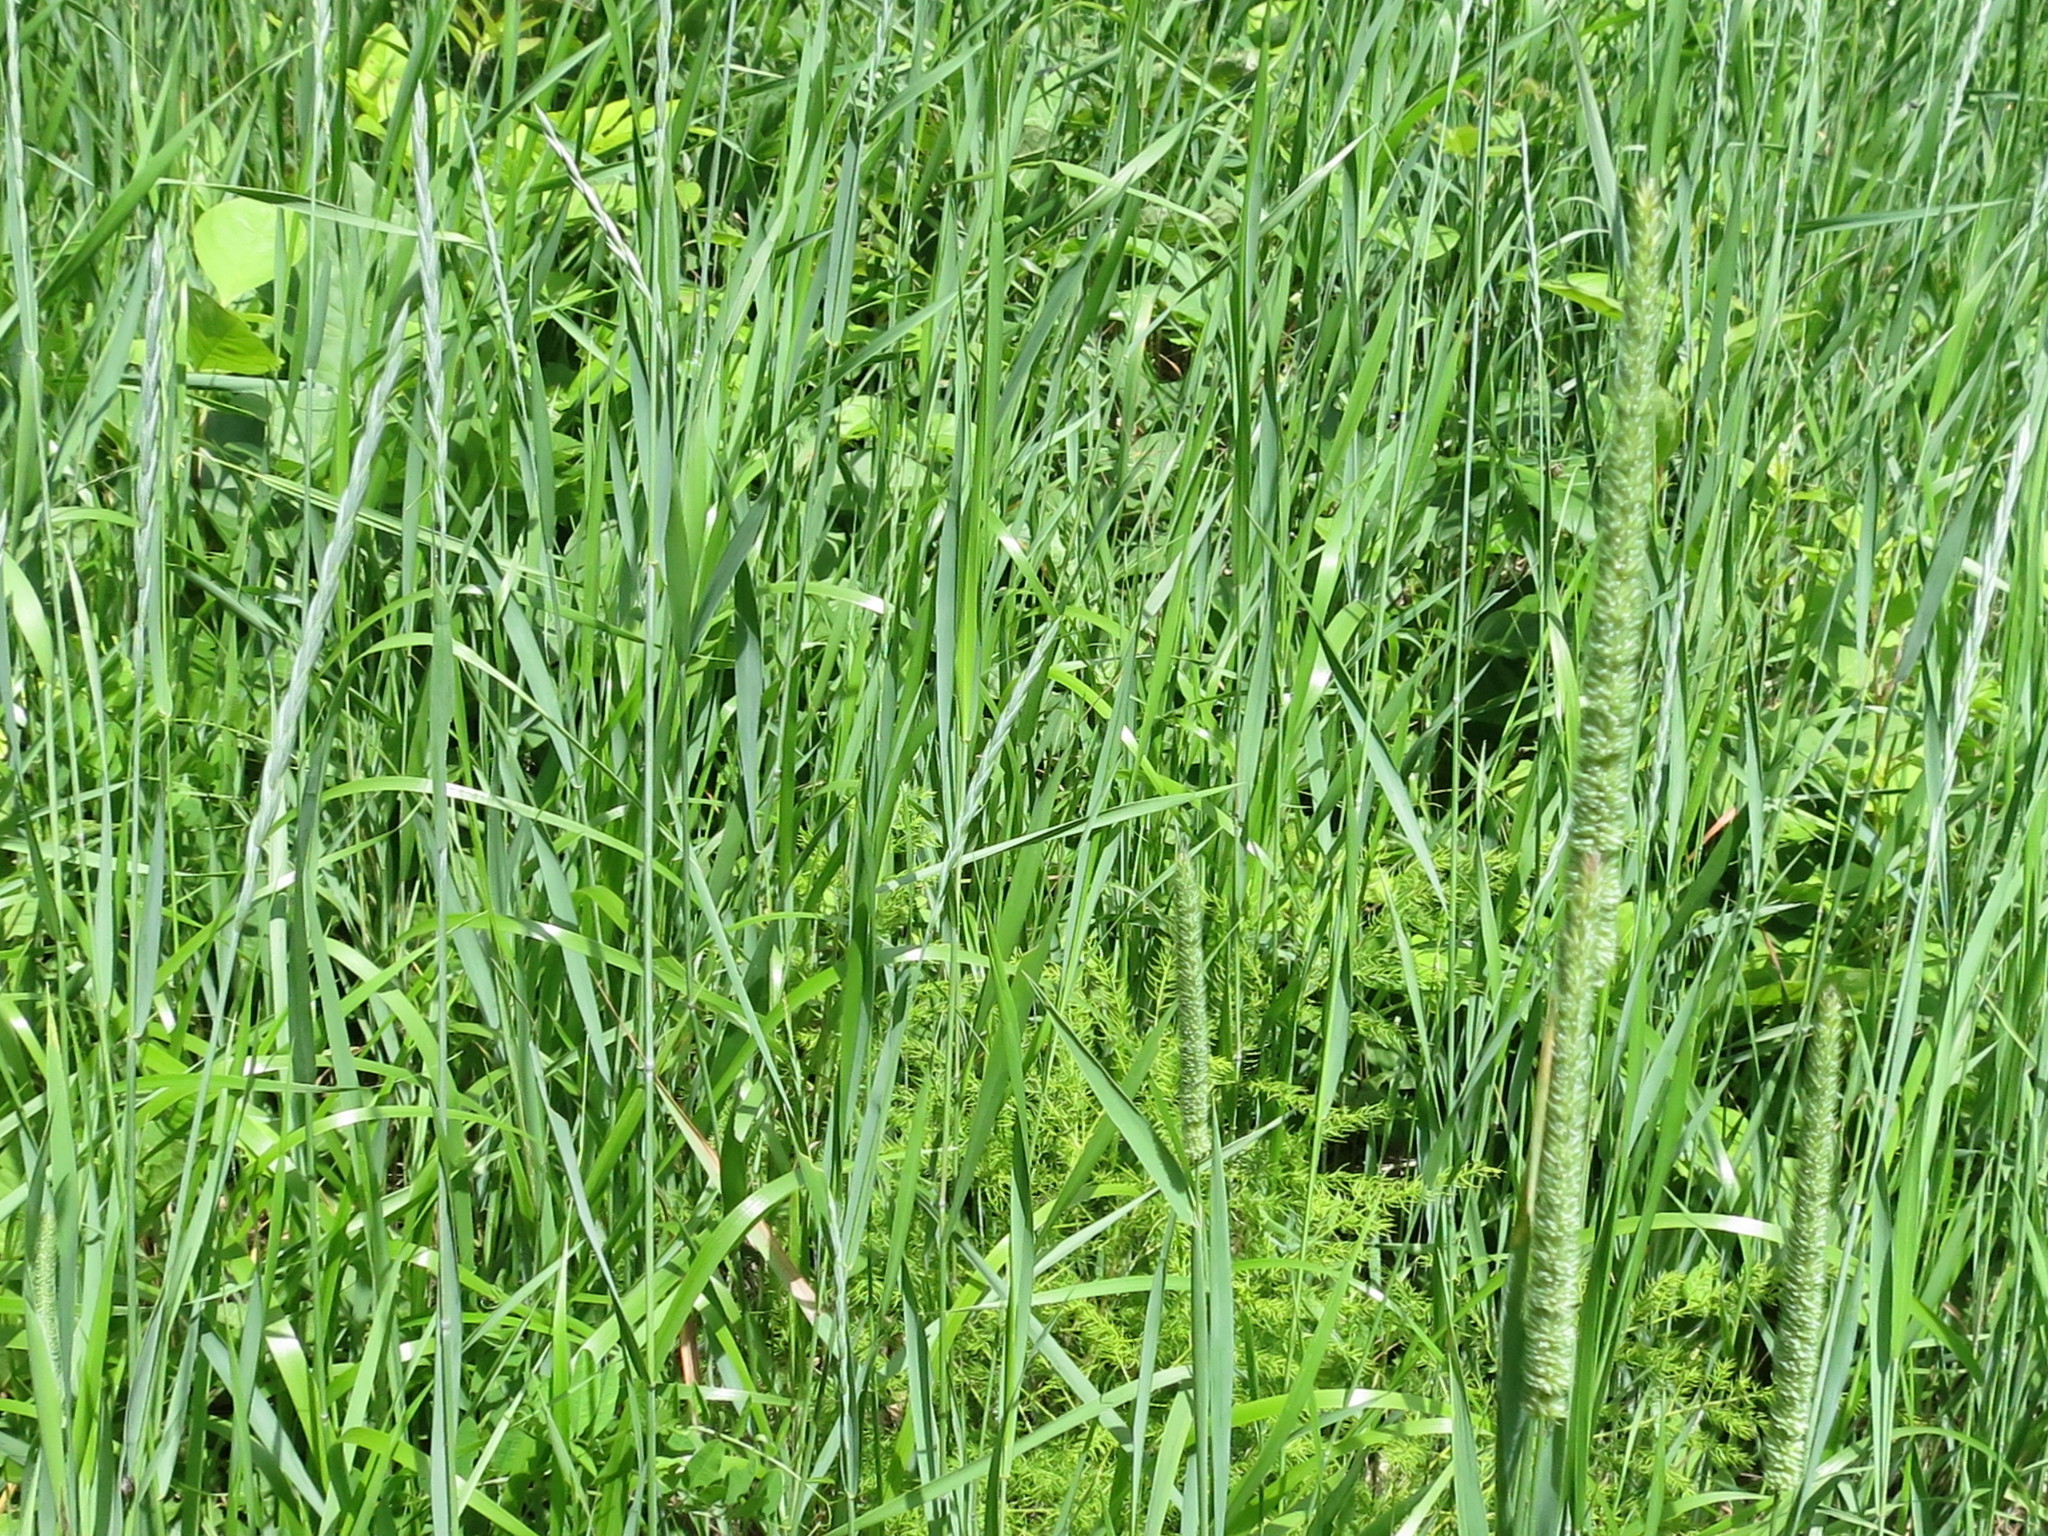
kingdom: Plantae
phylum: Tracheophyta
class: Liliopsida
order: Poales
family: Poaceae
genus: Phleum
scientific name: Phleum pratense
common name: Timothy grass
